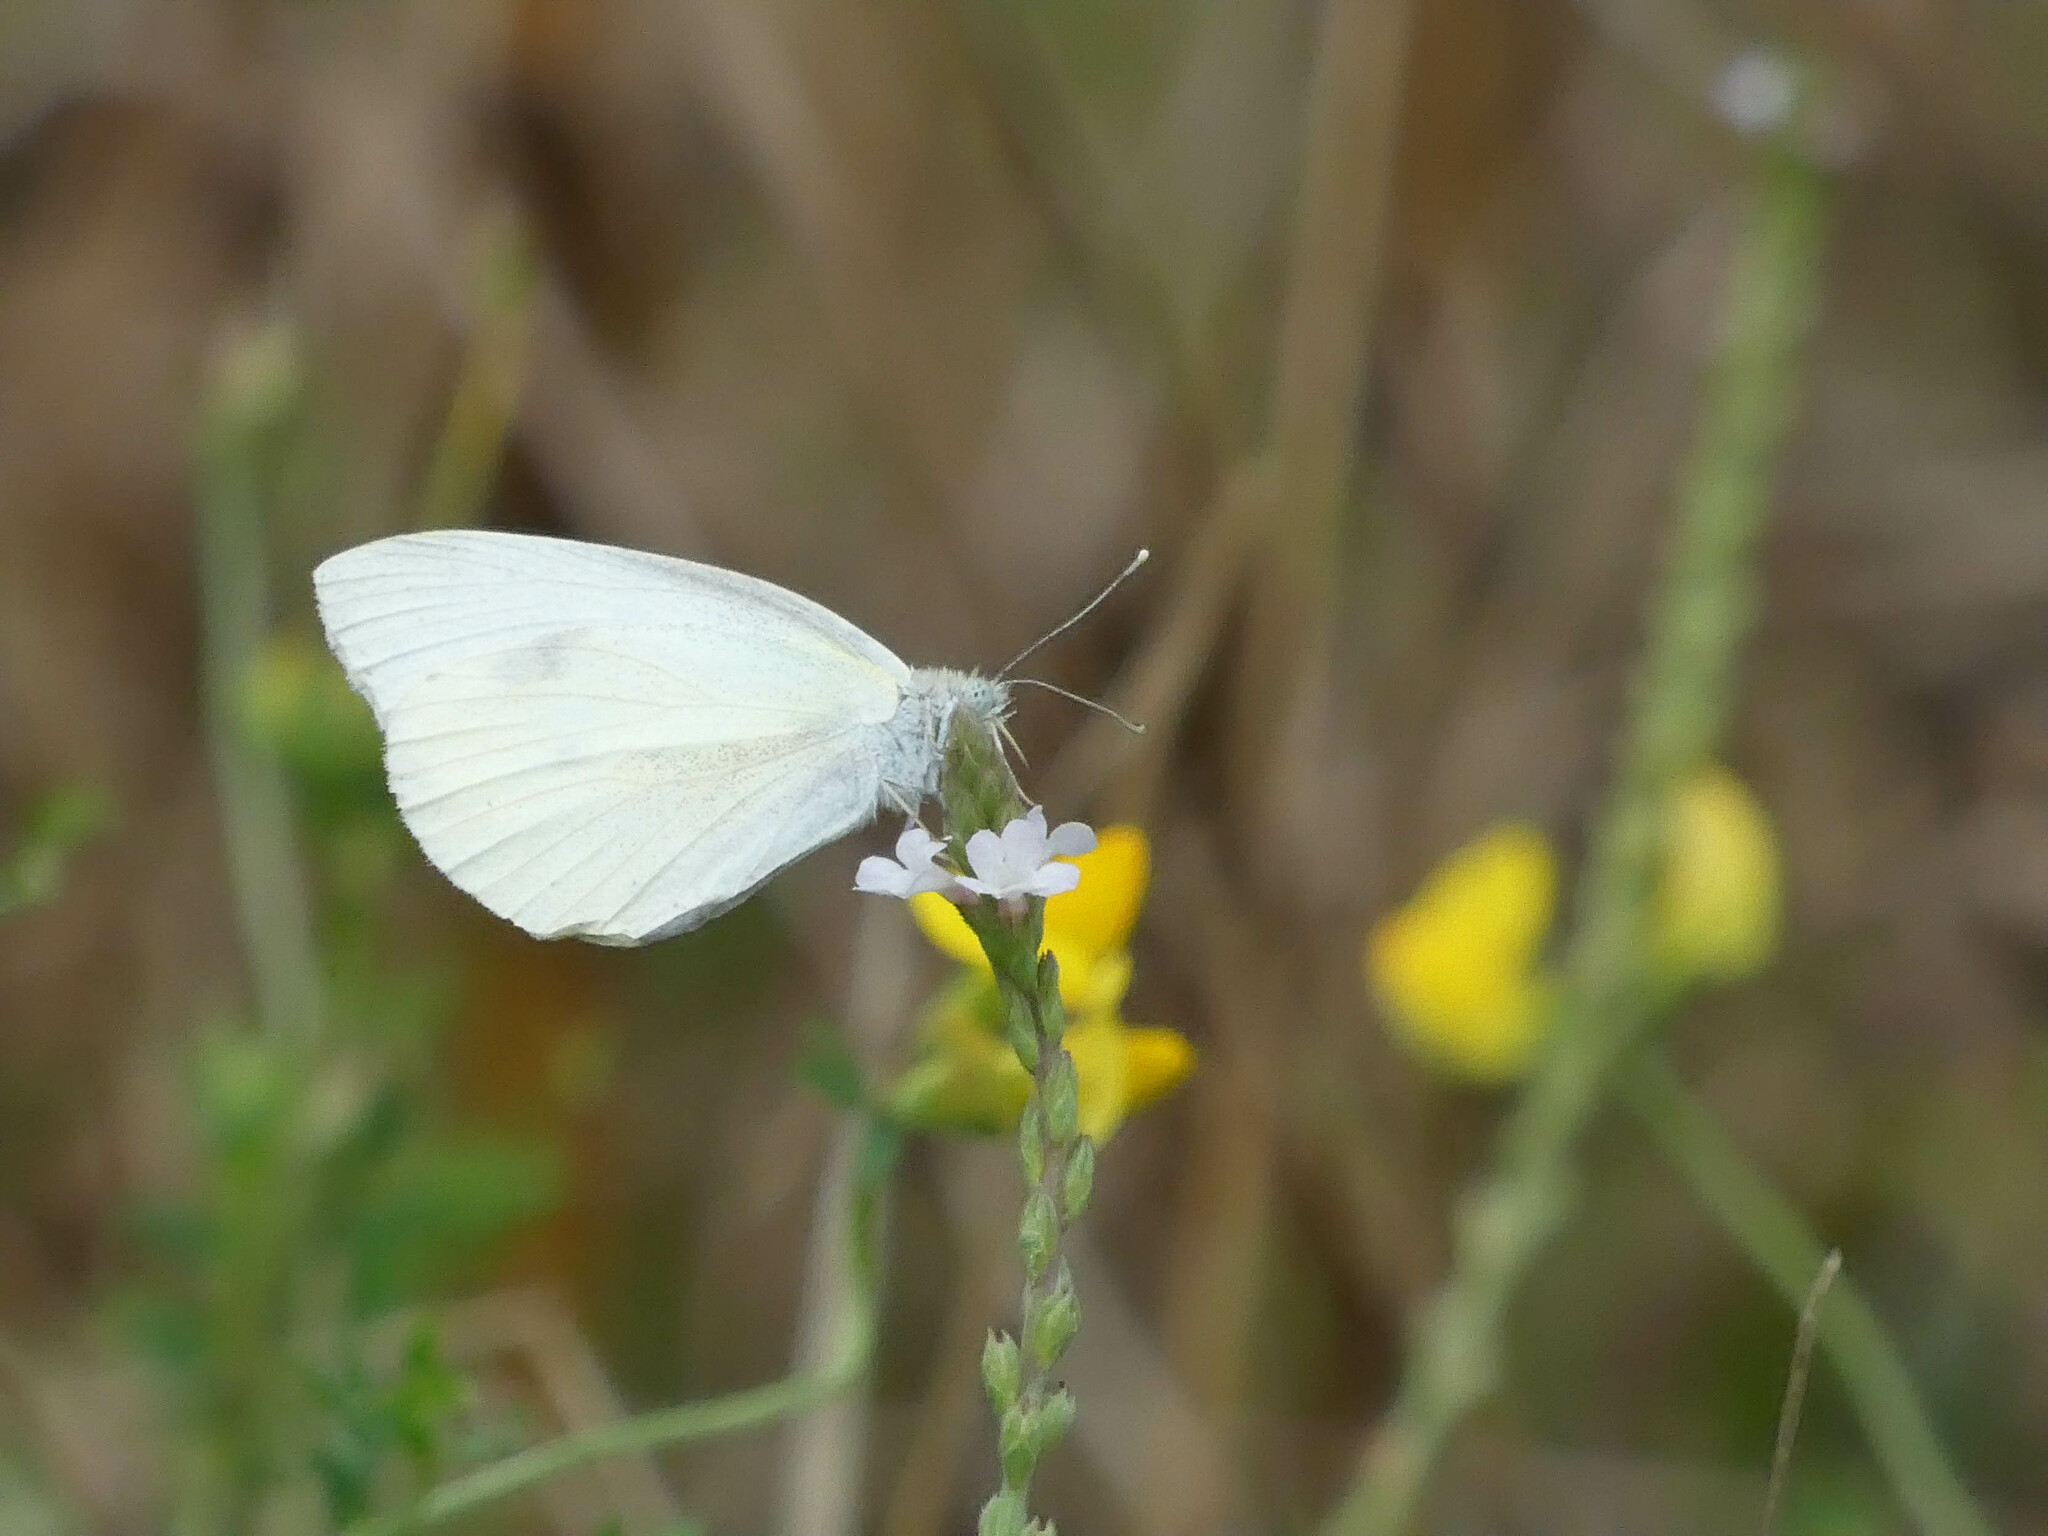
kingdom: Animalia
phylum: Arthropoda
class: Insecta
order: Lepidoptera
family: Pieridae
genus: Pieris
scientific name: Pieris rapae
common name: Small white
